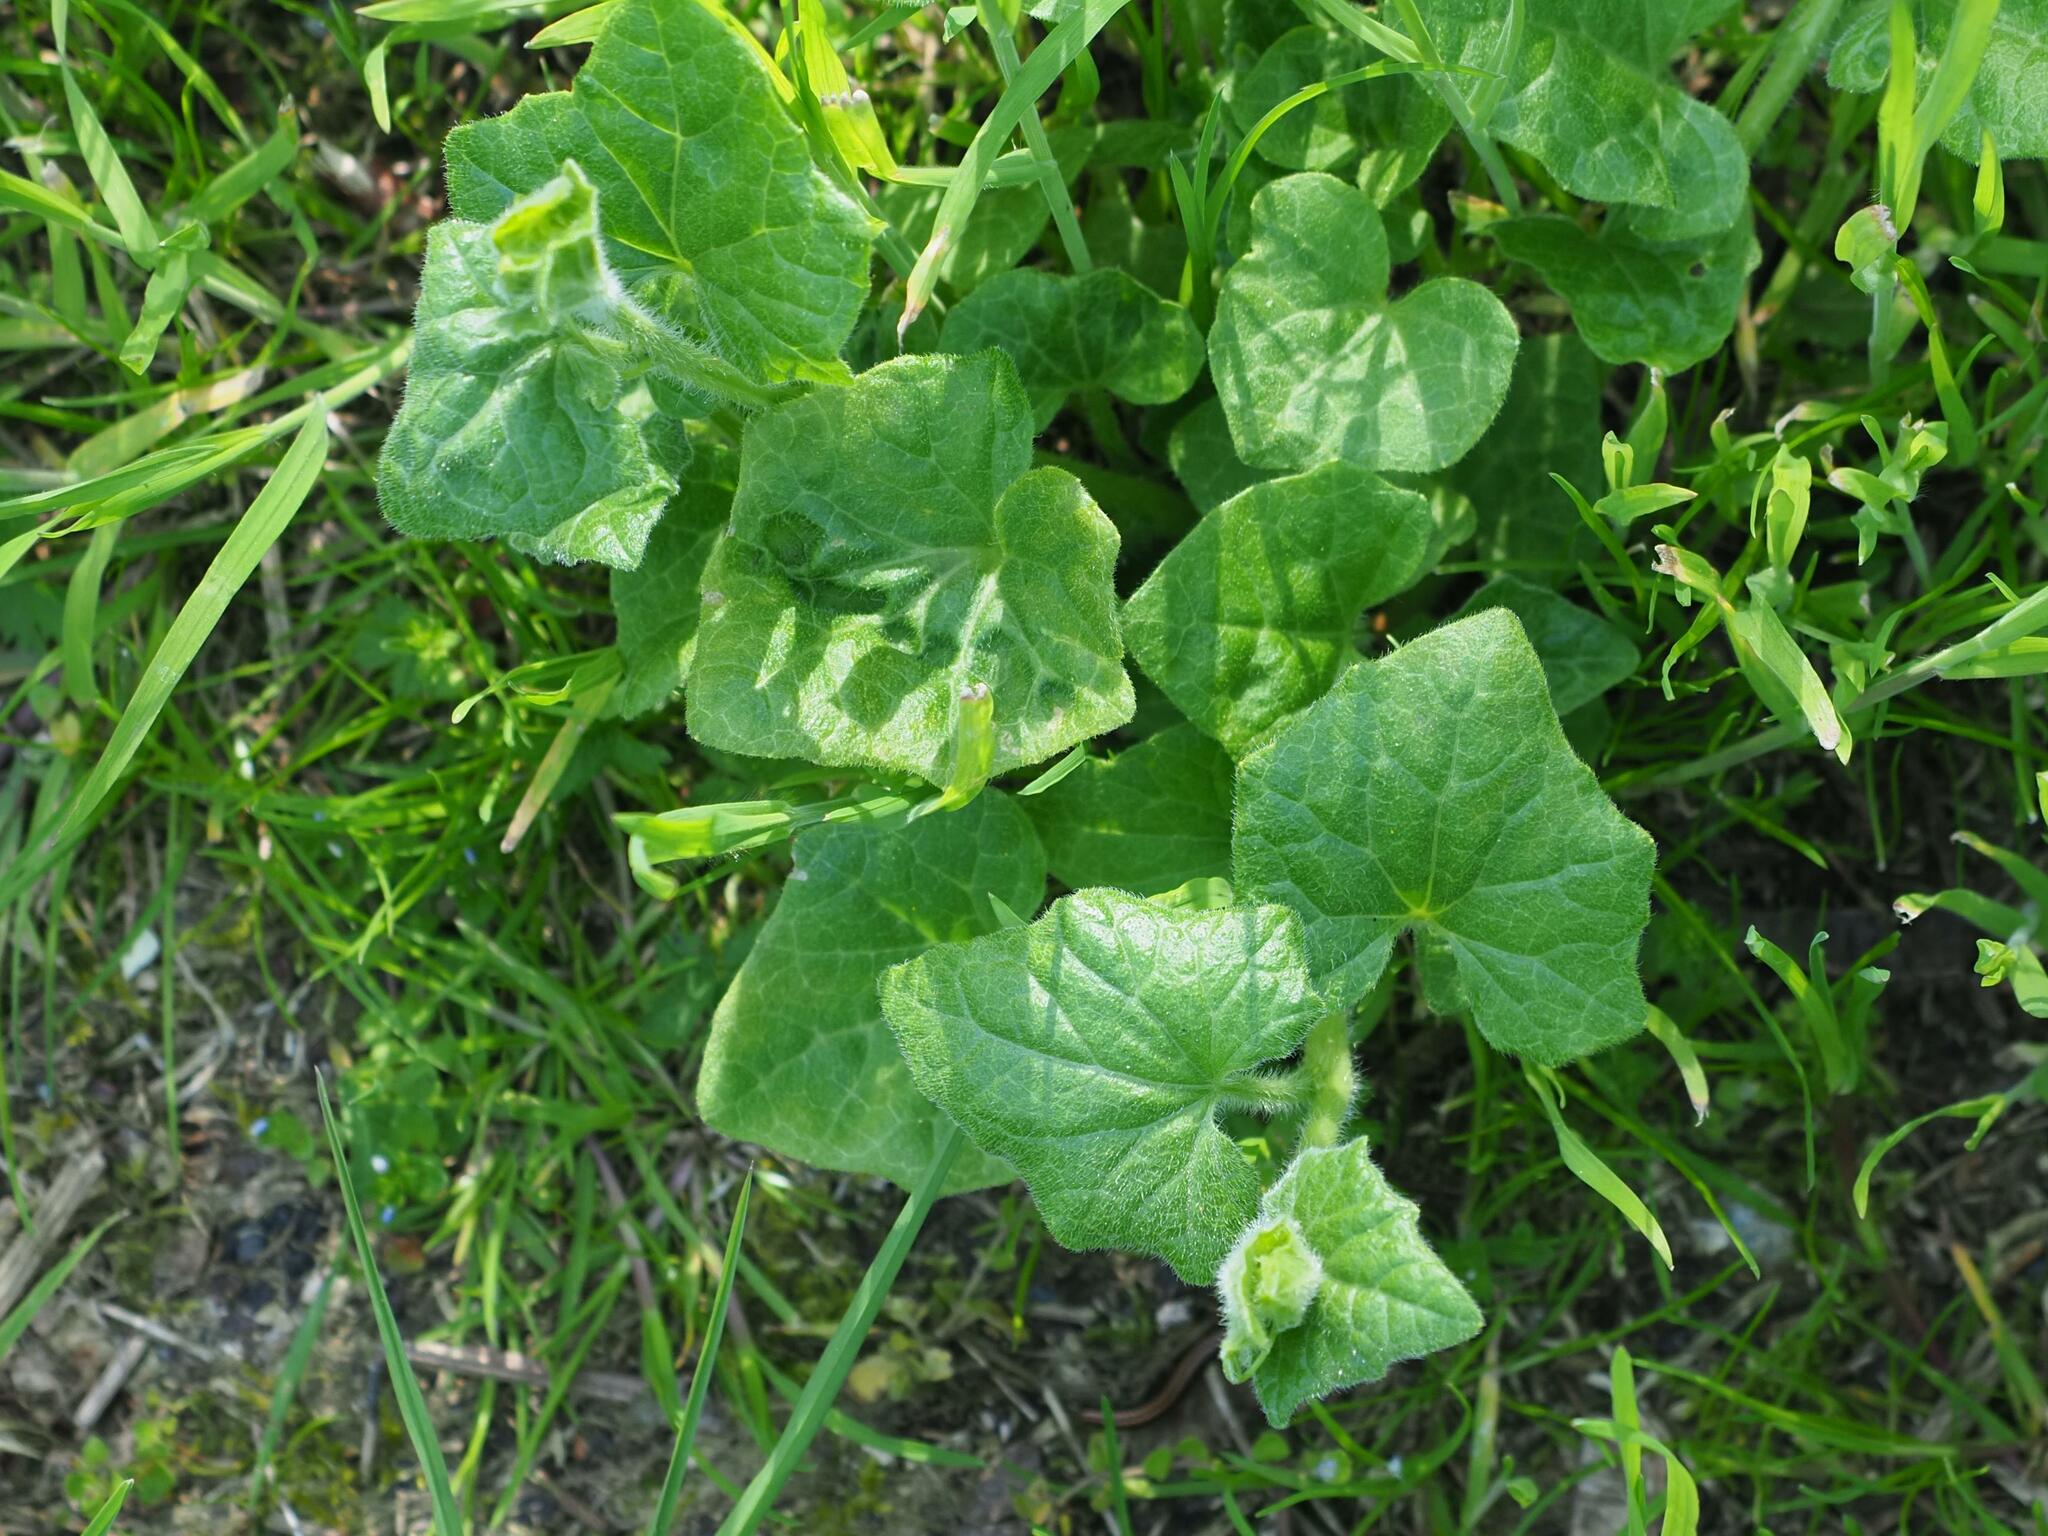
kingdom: Plantae
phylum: Tracheophyta
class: Magnoliopsida
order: Cucurbitales
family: Cucurbitaceae
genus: Bryonia
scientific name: Bryonia cretica
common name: Cretan bryony
